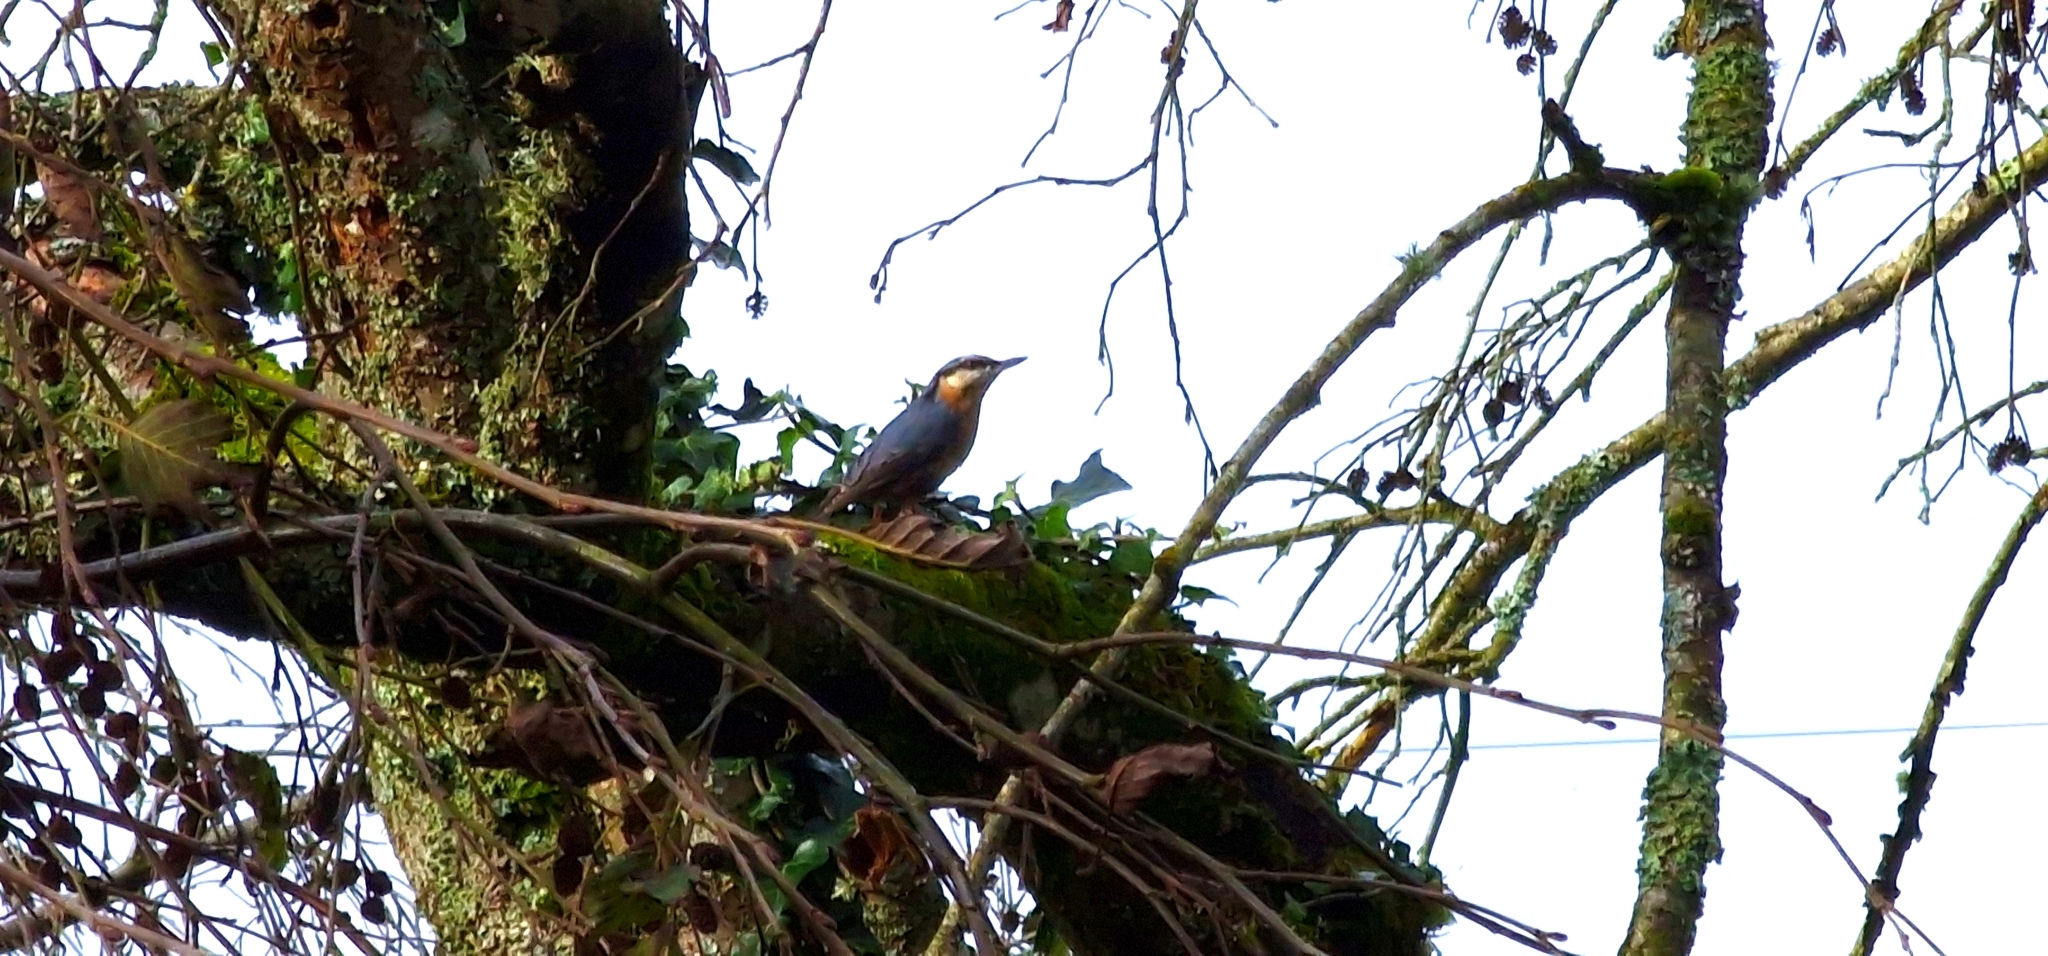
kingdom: Animalia
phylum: Chordata
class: Aves
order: Passeriformes
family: Sittidae
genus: Sitta
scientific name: Sitta europaea
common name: Eurasian nuthatch
